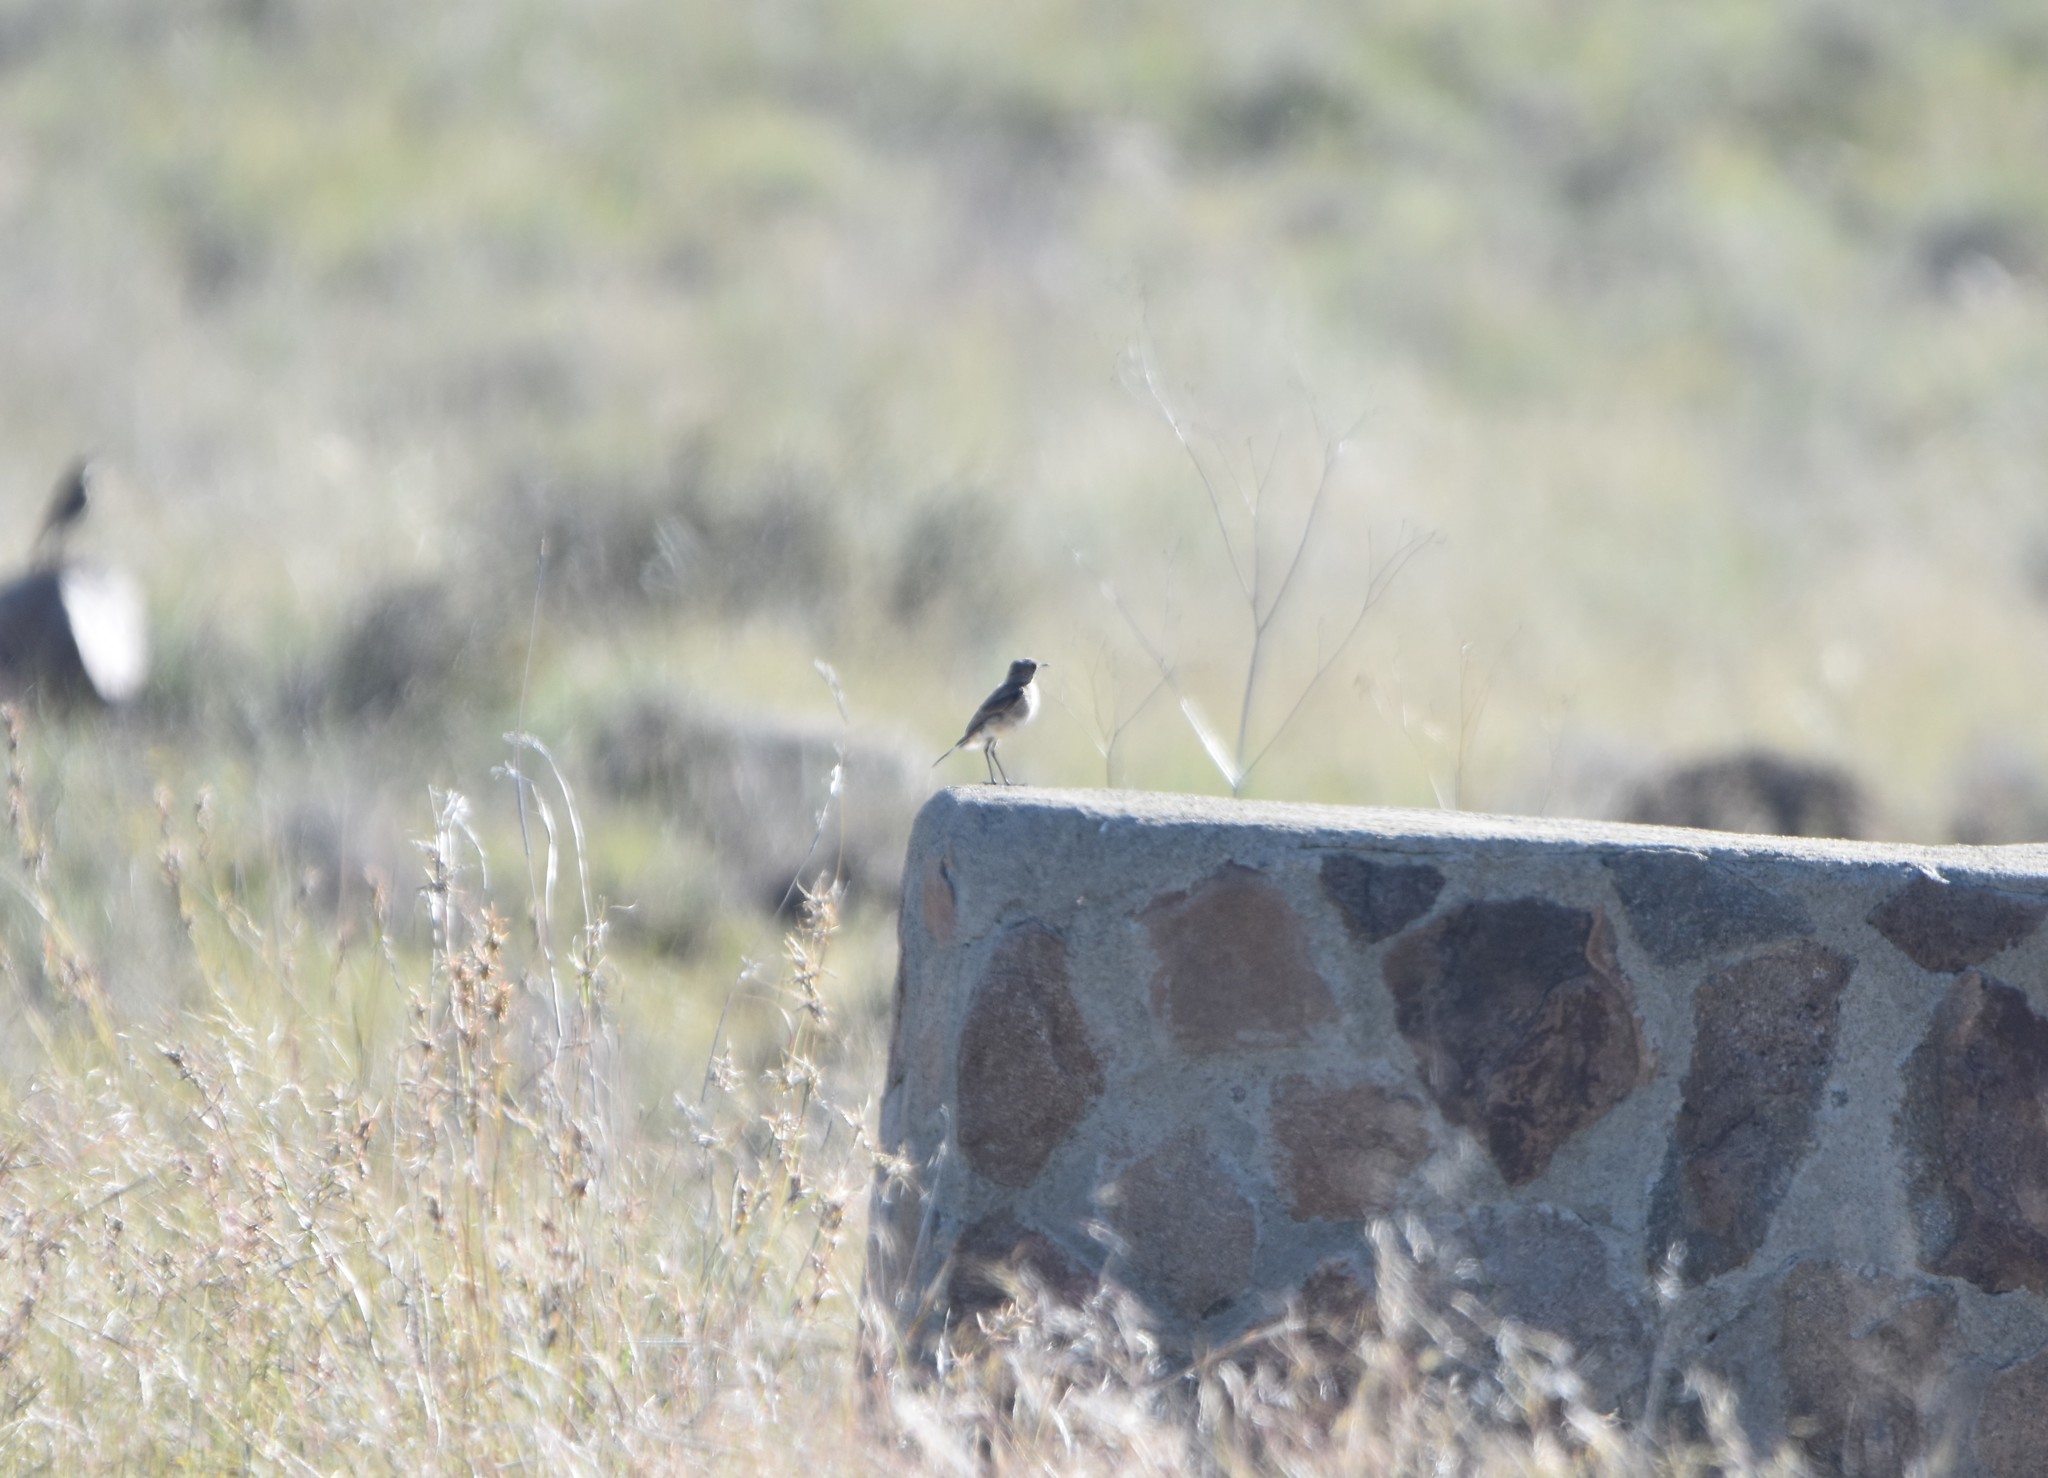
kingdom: Animalia
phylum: Chordata
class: Aves
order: Passeriformes
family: Muscicapidae
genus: Emarginata
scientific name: Emarginata schlegelii
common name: Karoo chat
